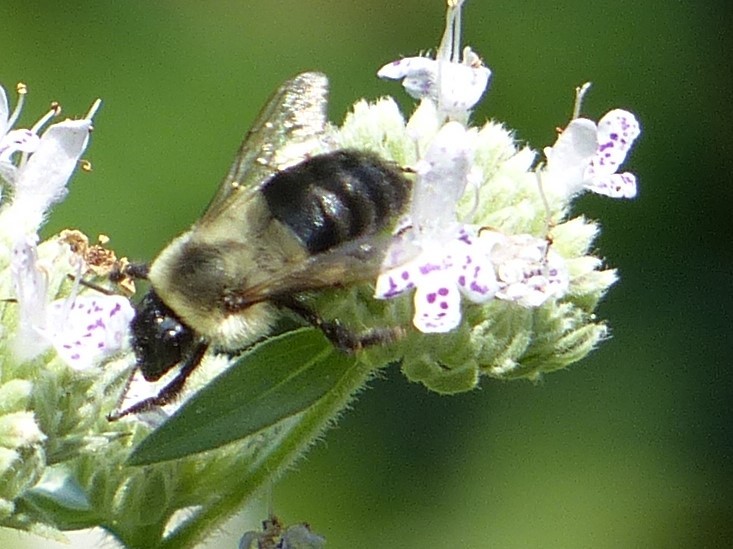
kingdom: Animalia
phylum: Arthropoda
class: Insecta
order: Hymenoptera
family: Apidae
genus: Bombus
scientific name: Bombus impatiens
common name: Common eastern bumble bee
